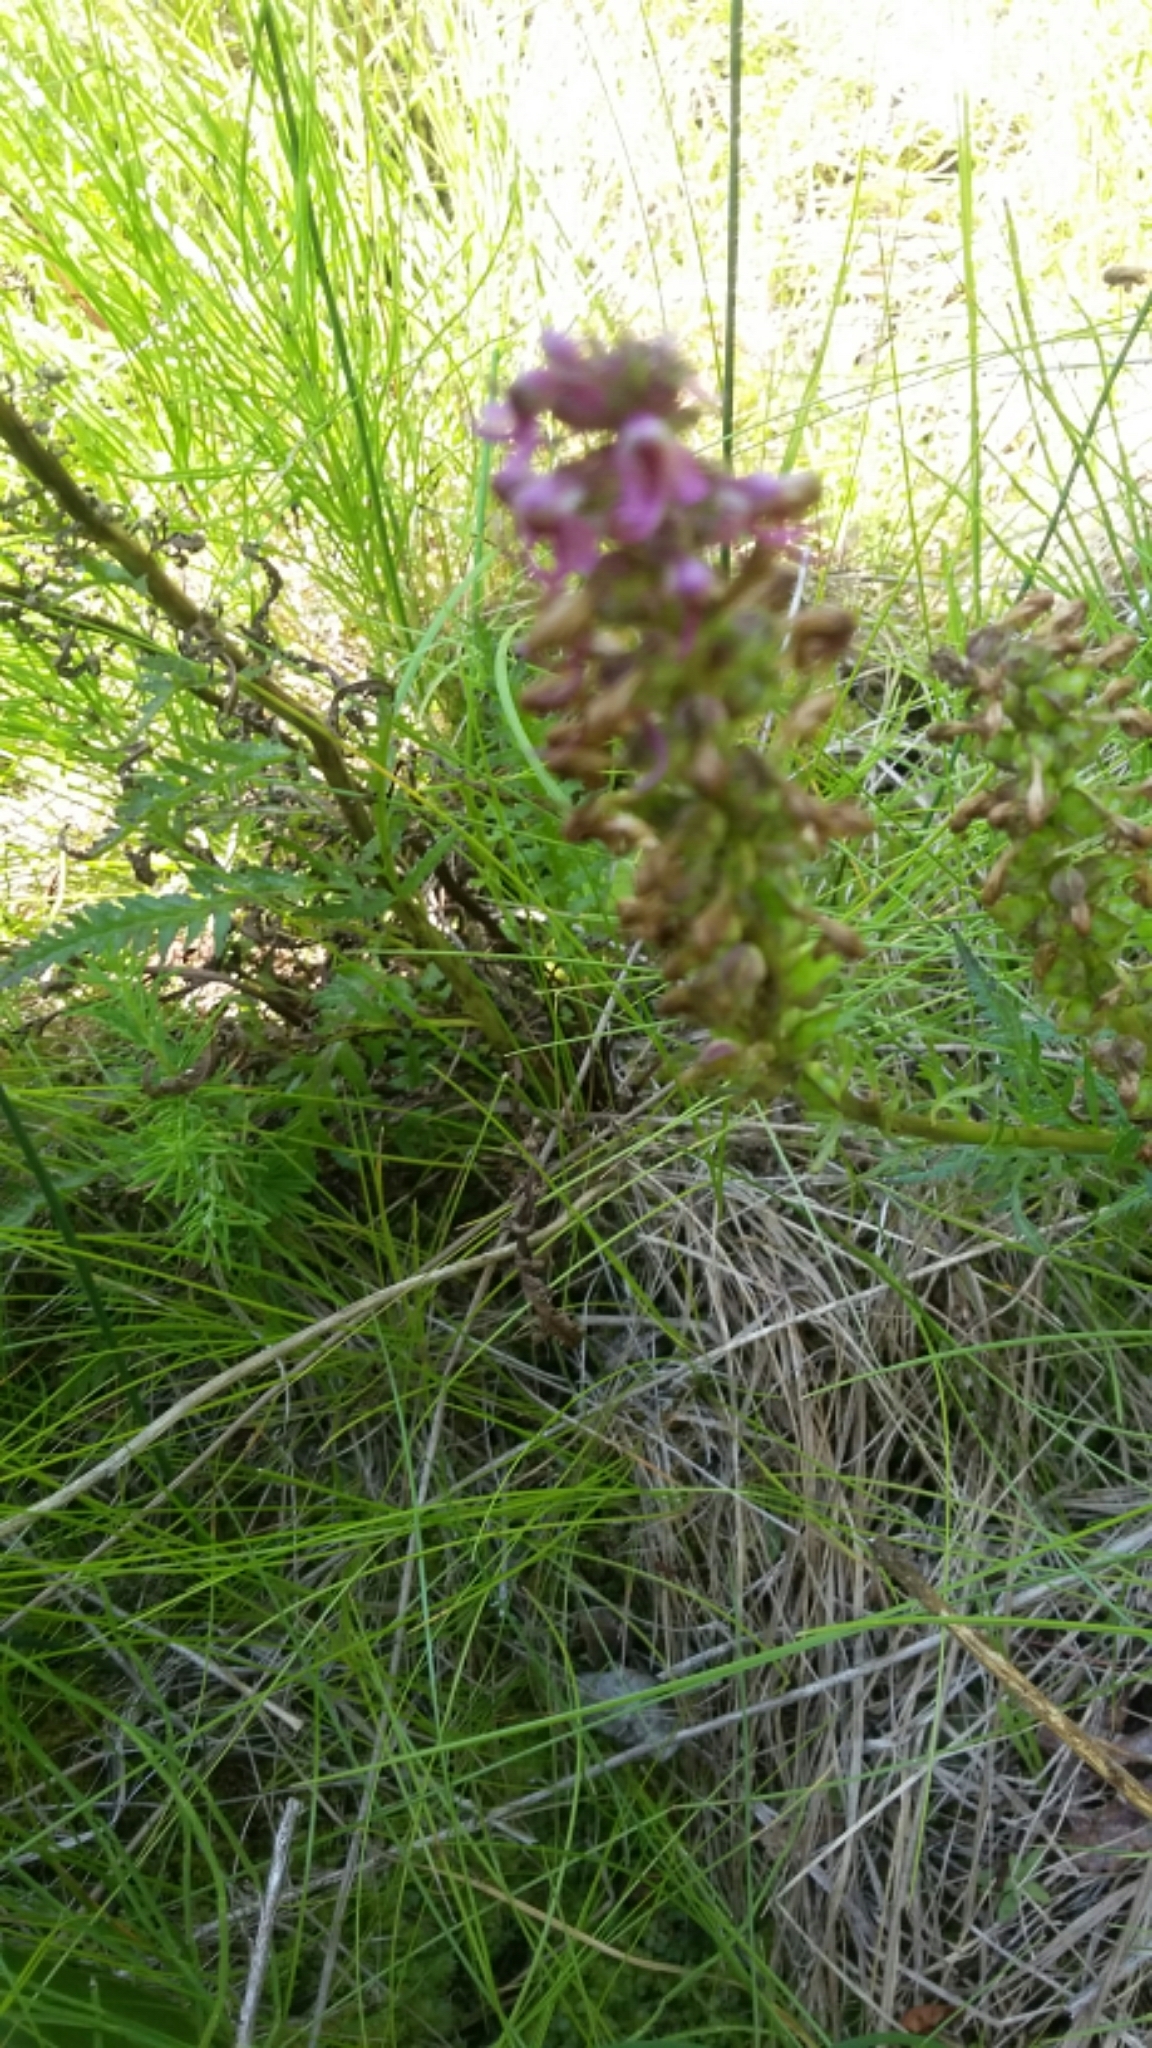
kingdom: Plantae
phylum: Tracheophyta
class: Magnoliopsida
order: Lamiales
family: Orobanchaceae
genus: Pedicularis
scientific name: Pedicularis groenlandica
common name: Elephant's-head
